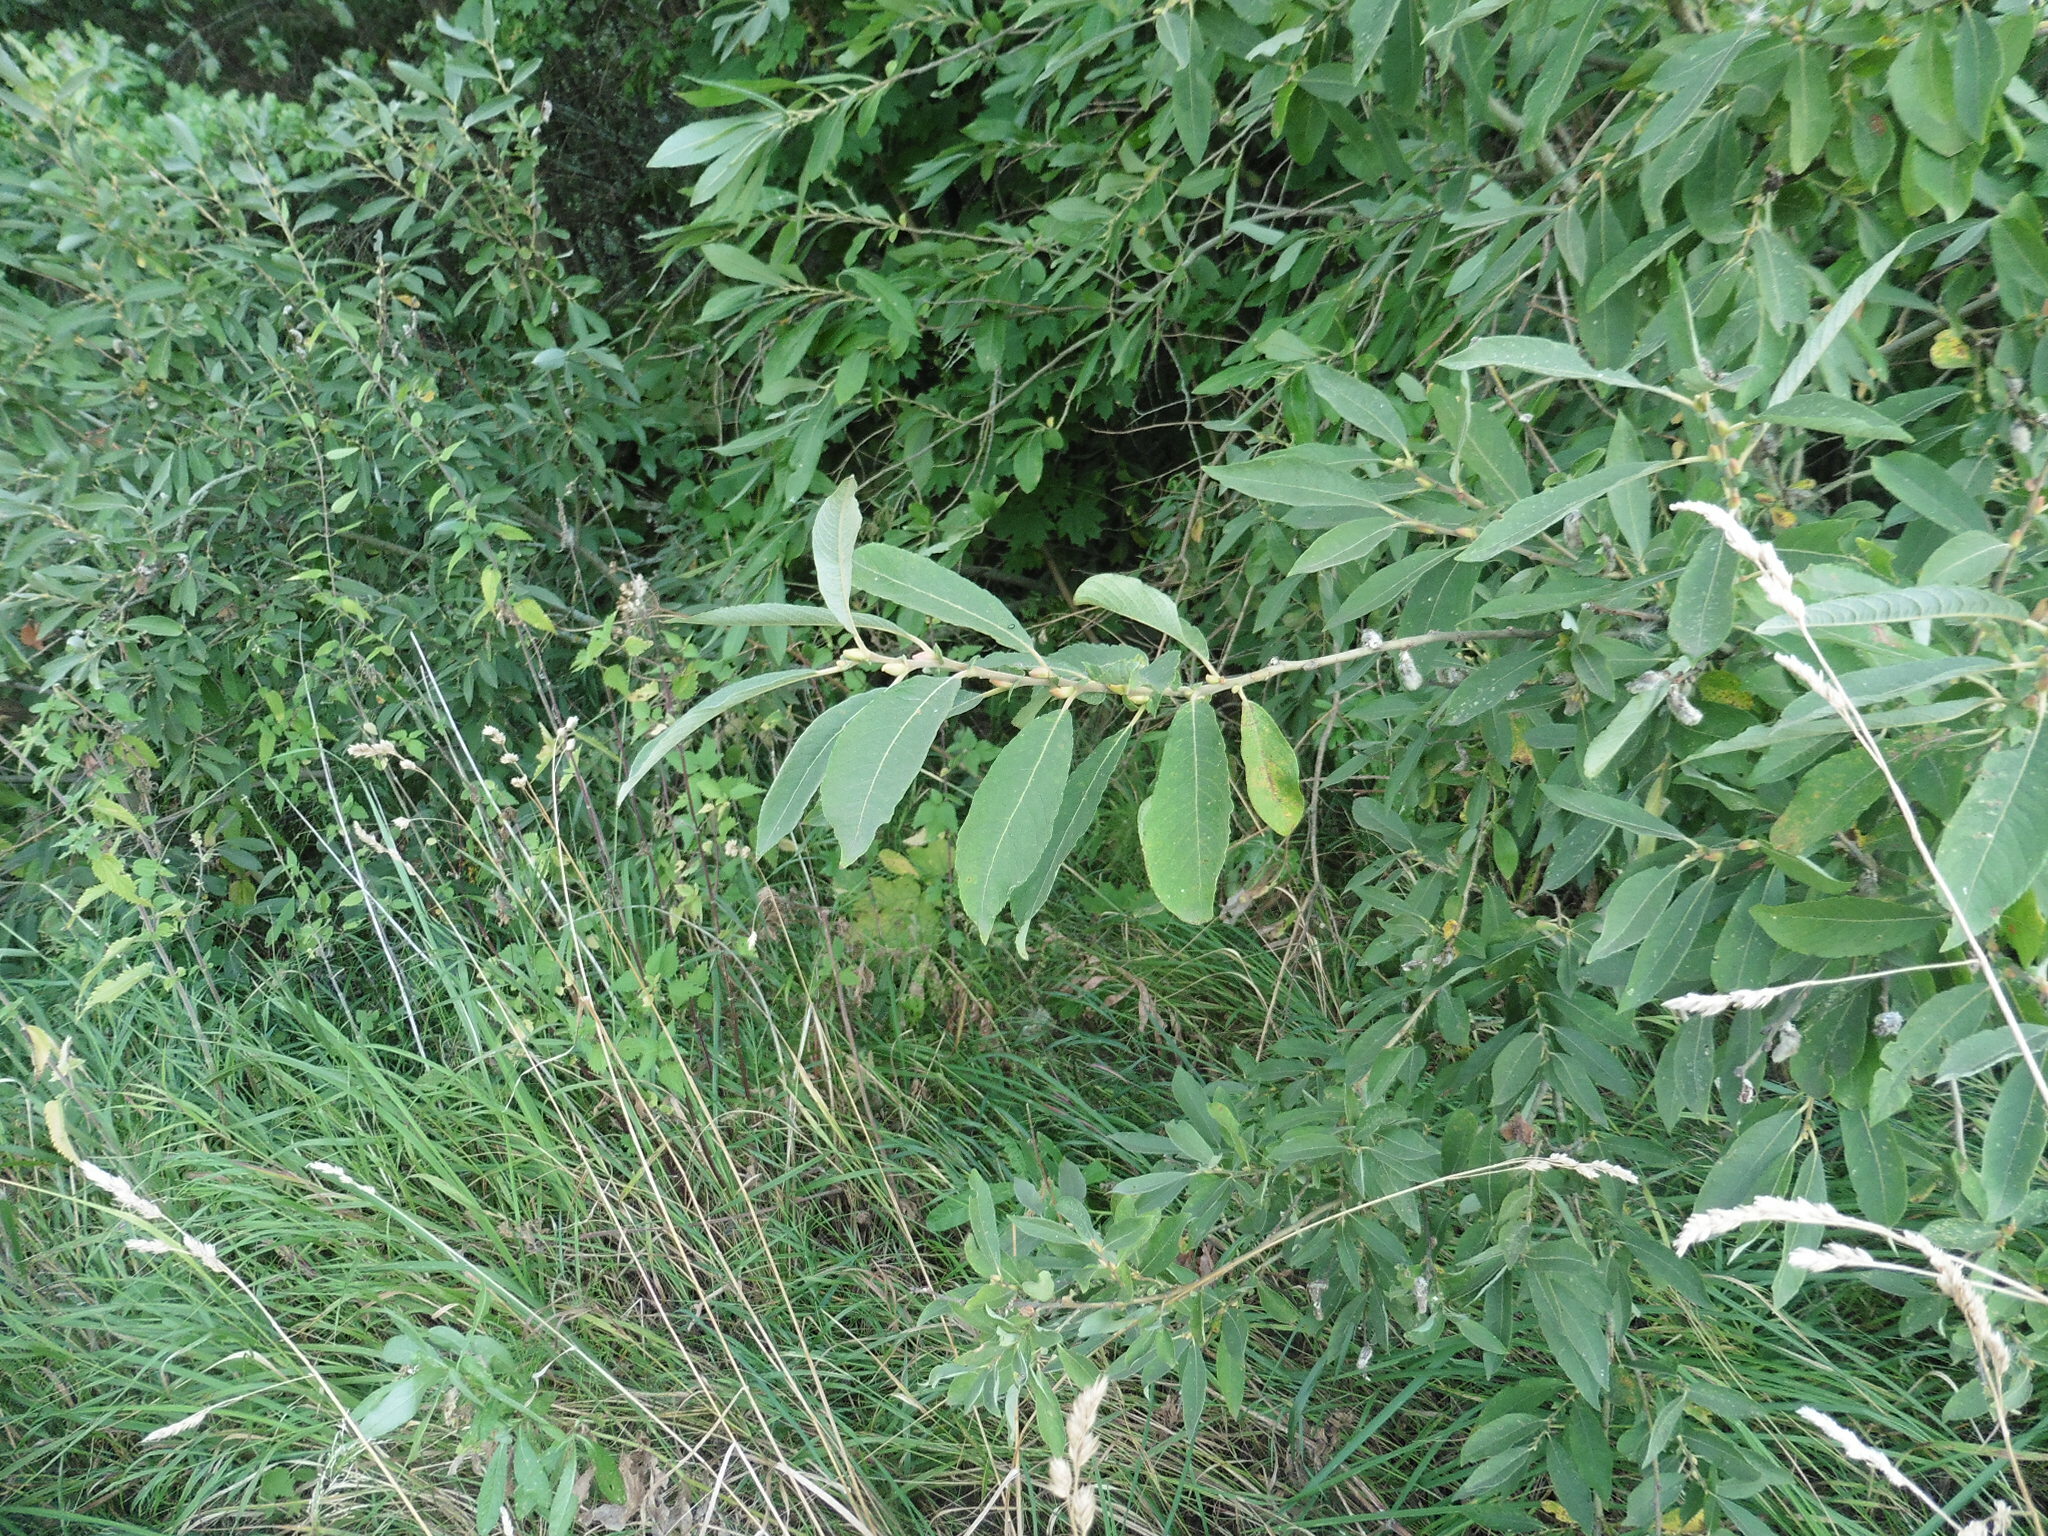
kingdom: Plantae
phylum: Tracheophyta
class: Magnoliopsida
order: Malpighiales
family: Salicaceae
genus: Salix
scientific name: Salix cinerea
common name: Common sallow
